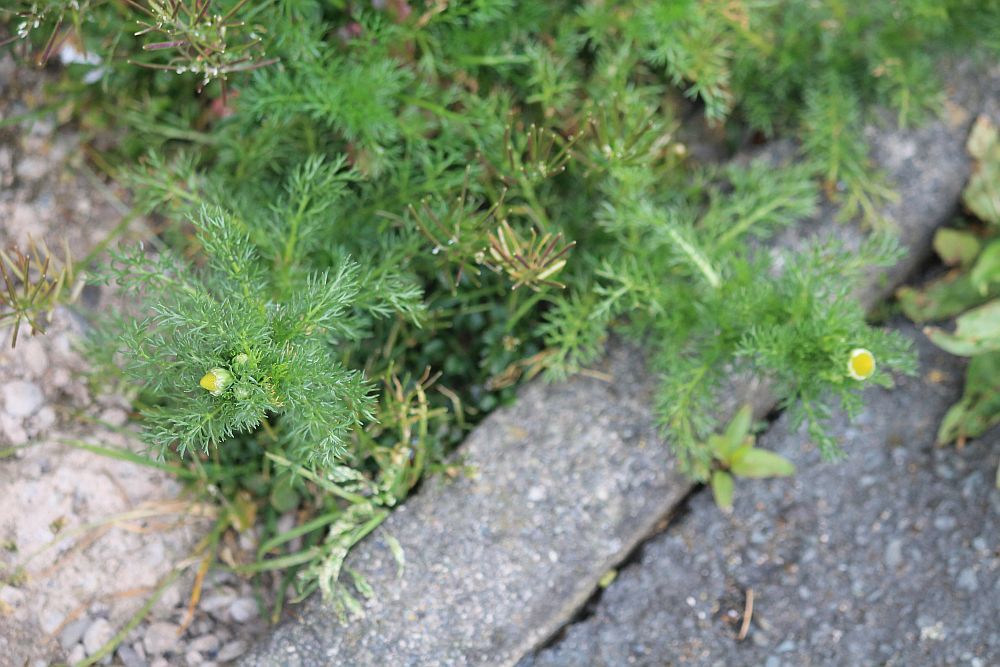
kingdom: Plantae
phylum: Tracheophyta
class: Magnoliopsida
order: Asterales
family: Asteraceae
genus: Matricaria
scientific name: Matricaria discoidea
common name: Disc mayweed
